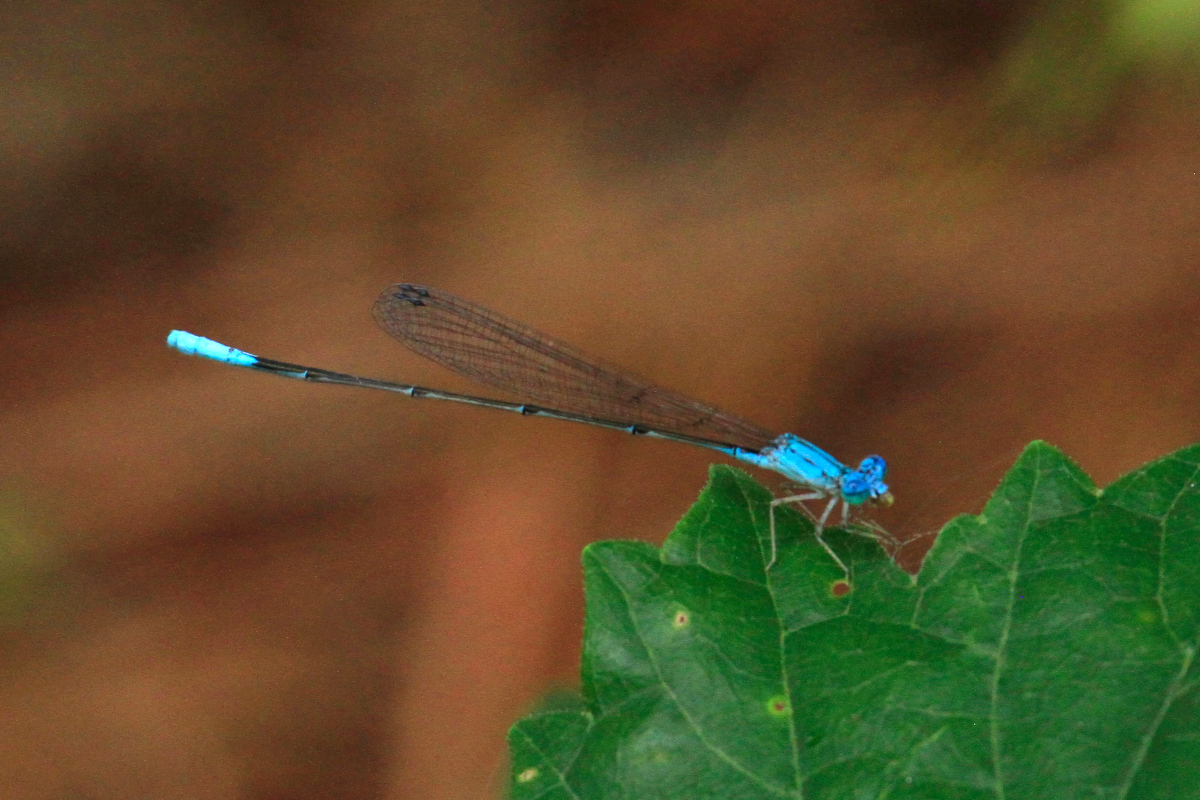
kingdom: Animalia
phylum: Arthropoda
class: Insecta
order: Odonata
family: Coenagrionidae
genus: Enallagma
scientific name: Enallagma daeckii
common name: Attenuated bluet
